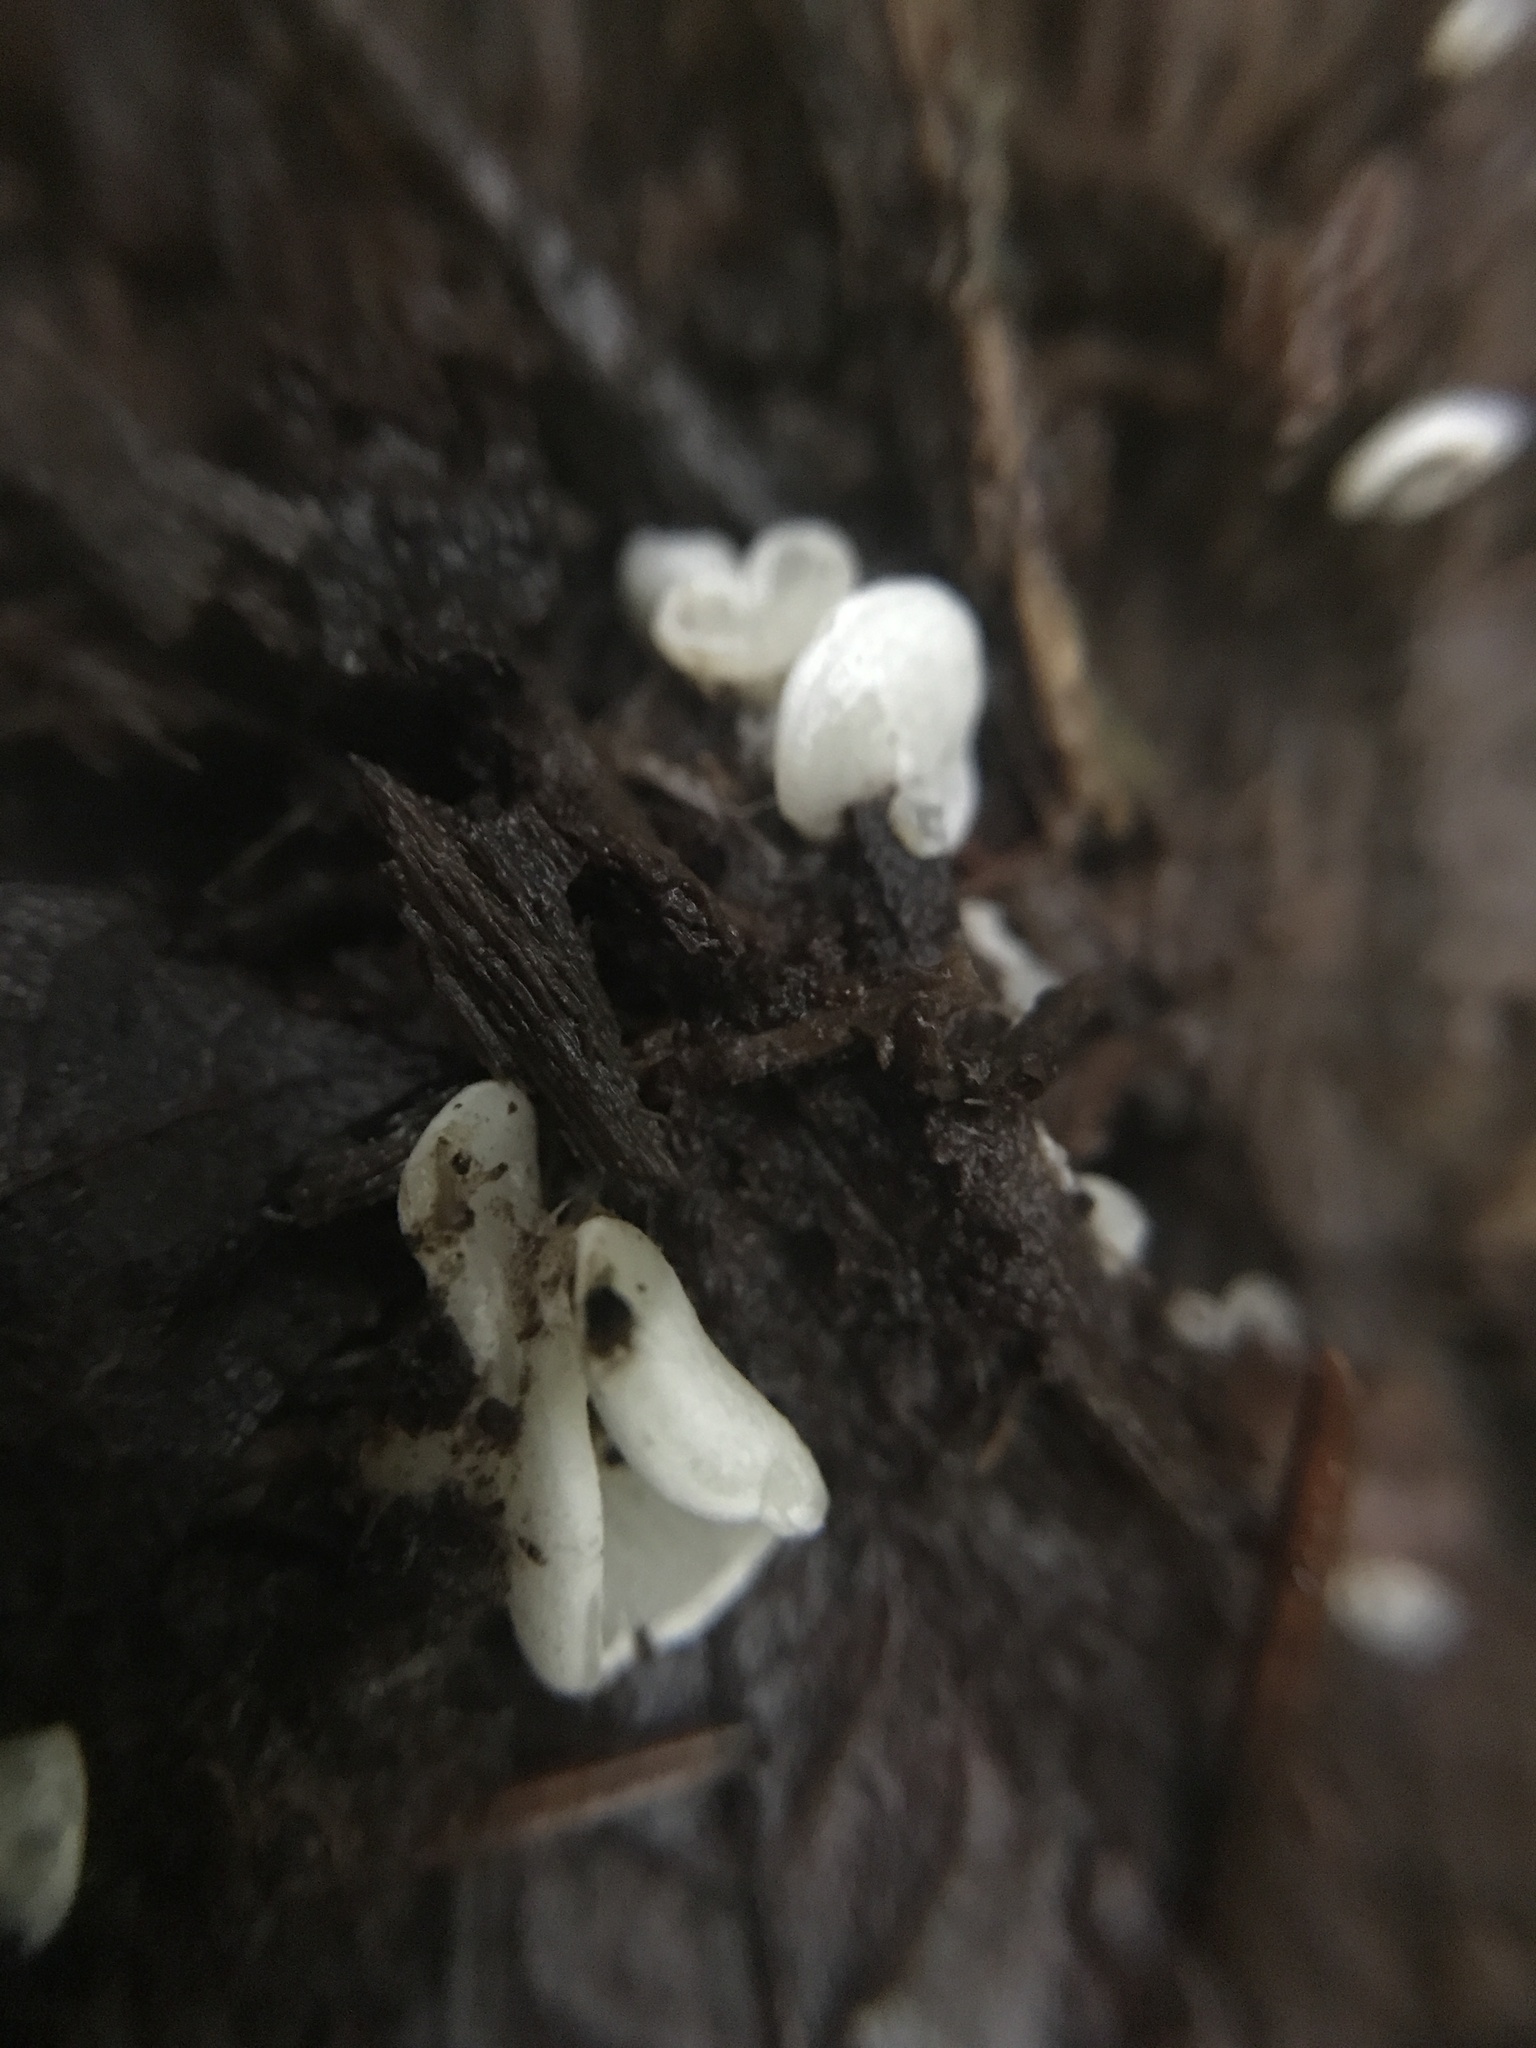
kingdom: Fungi
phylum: Basidiomycota
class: Agaricomycetes
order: Agaricales
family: Marasmiaceae
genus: Pleurocybella
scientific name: Pleurocybella porrigens
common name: Angel's wings
